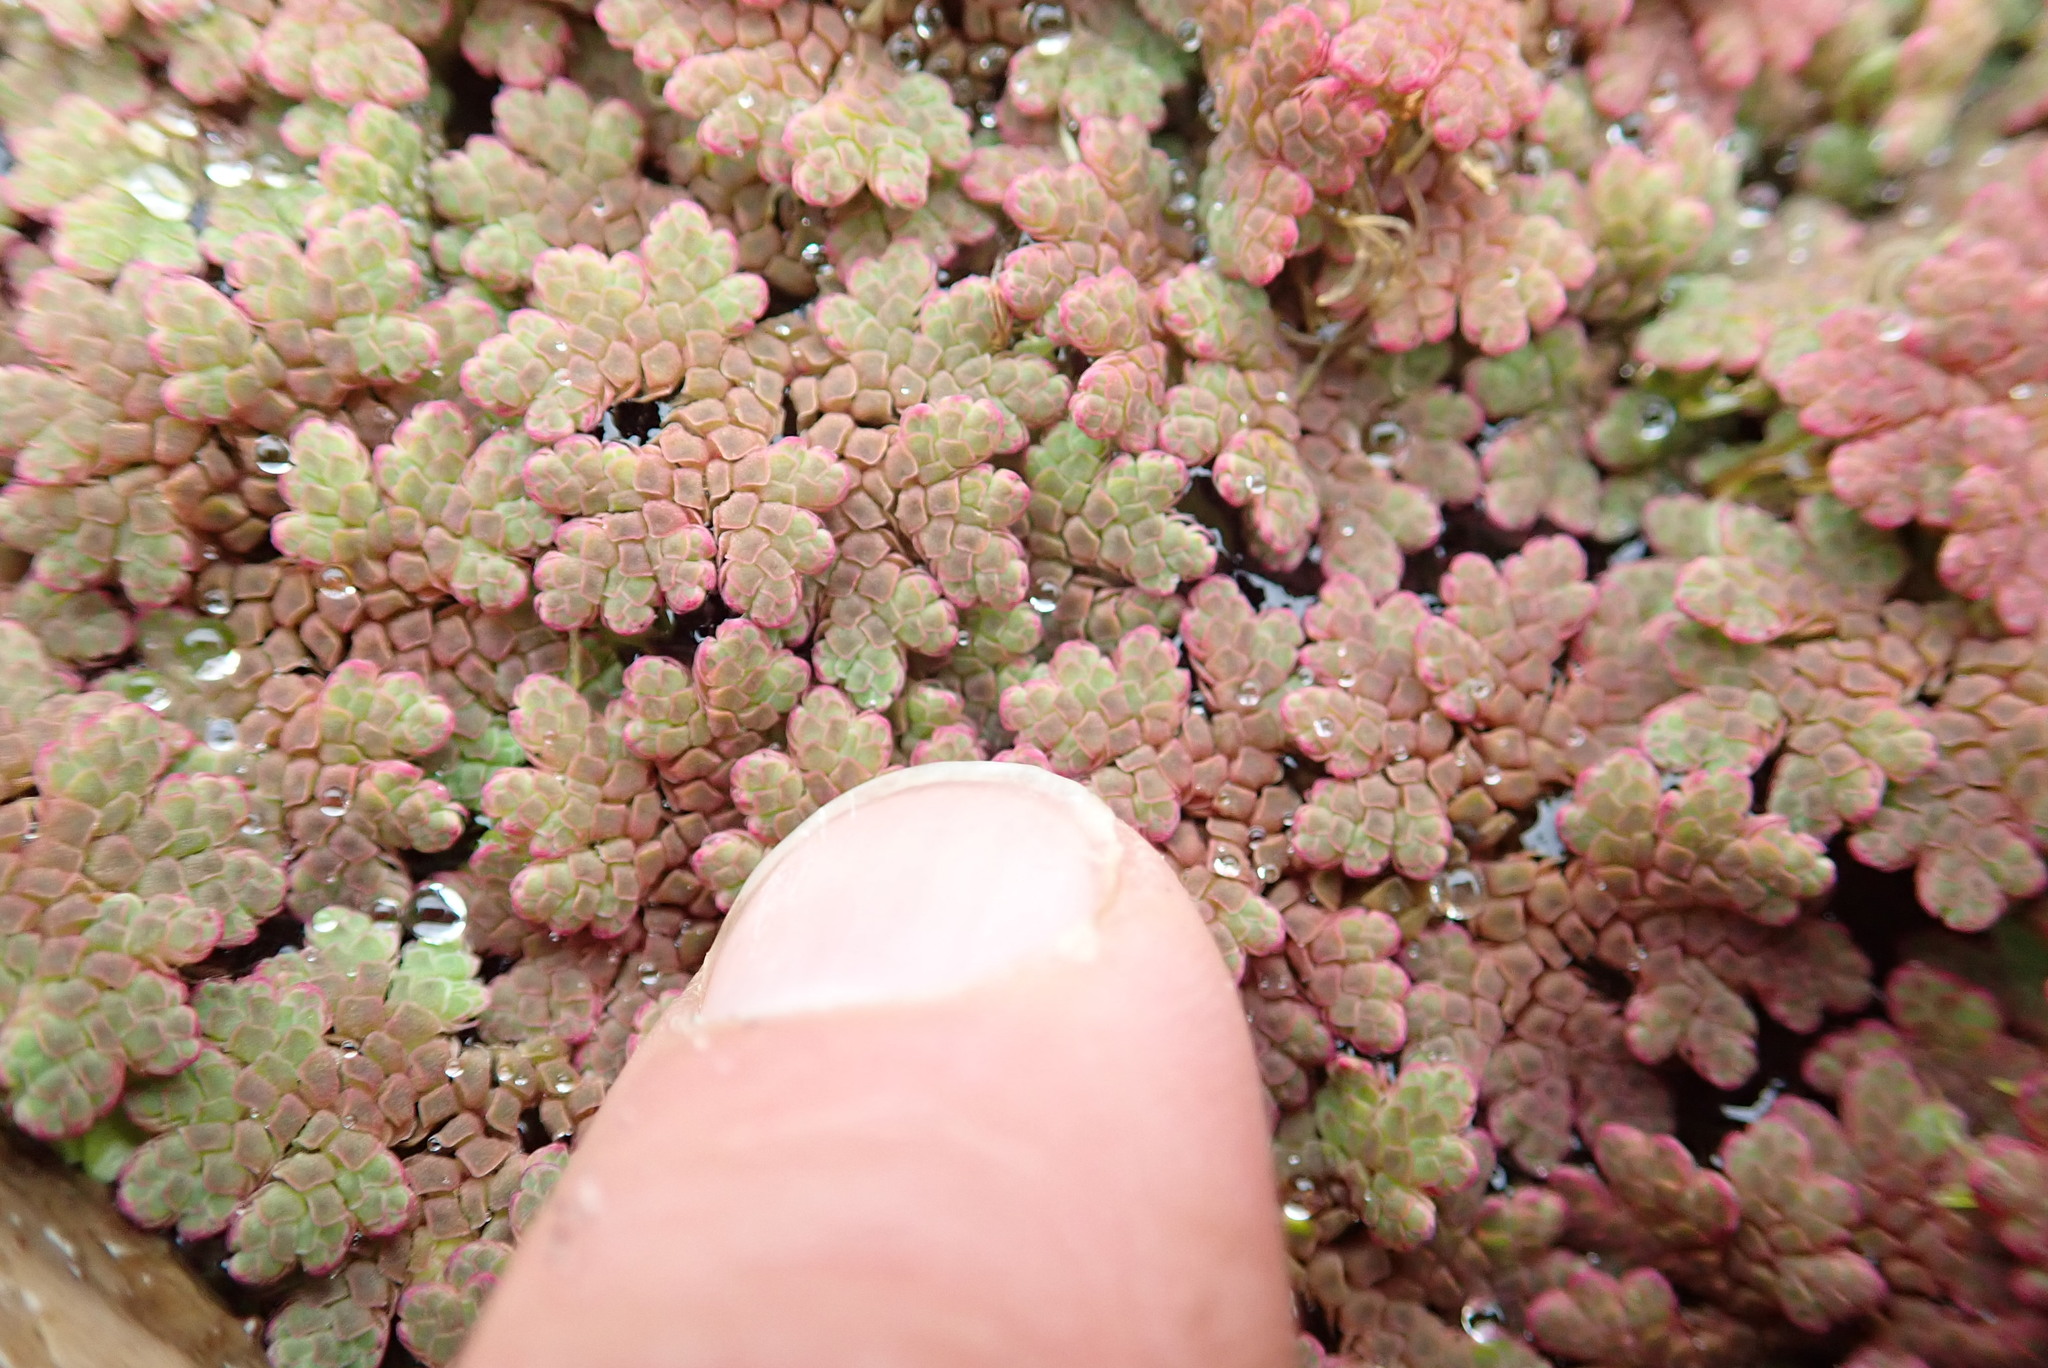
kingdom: Plantae
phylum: Tracheophyta
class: Polypodiopsida
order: Salviniales
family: Salviniaceae
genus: Azolla
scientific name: Azolla rubra
